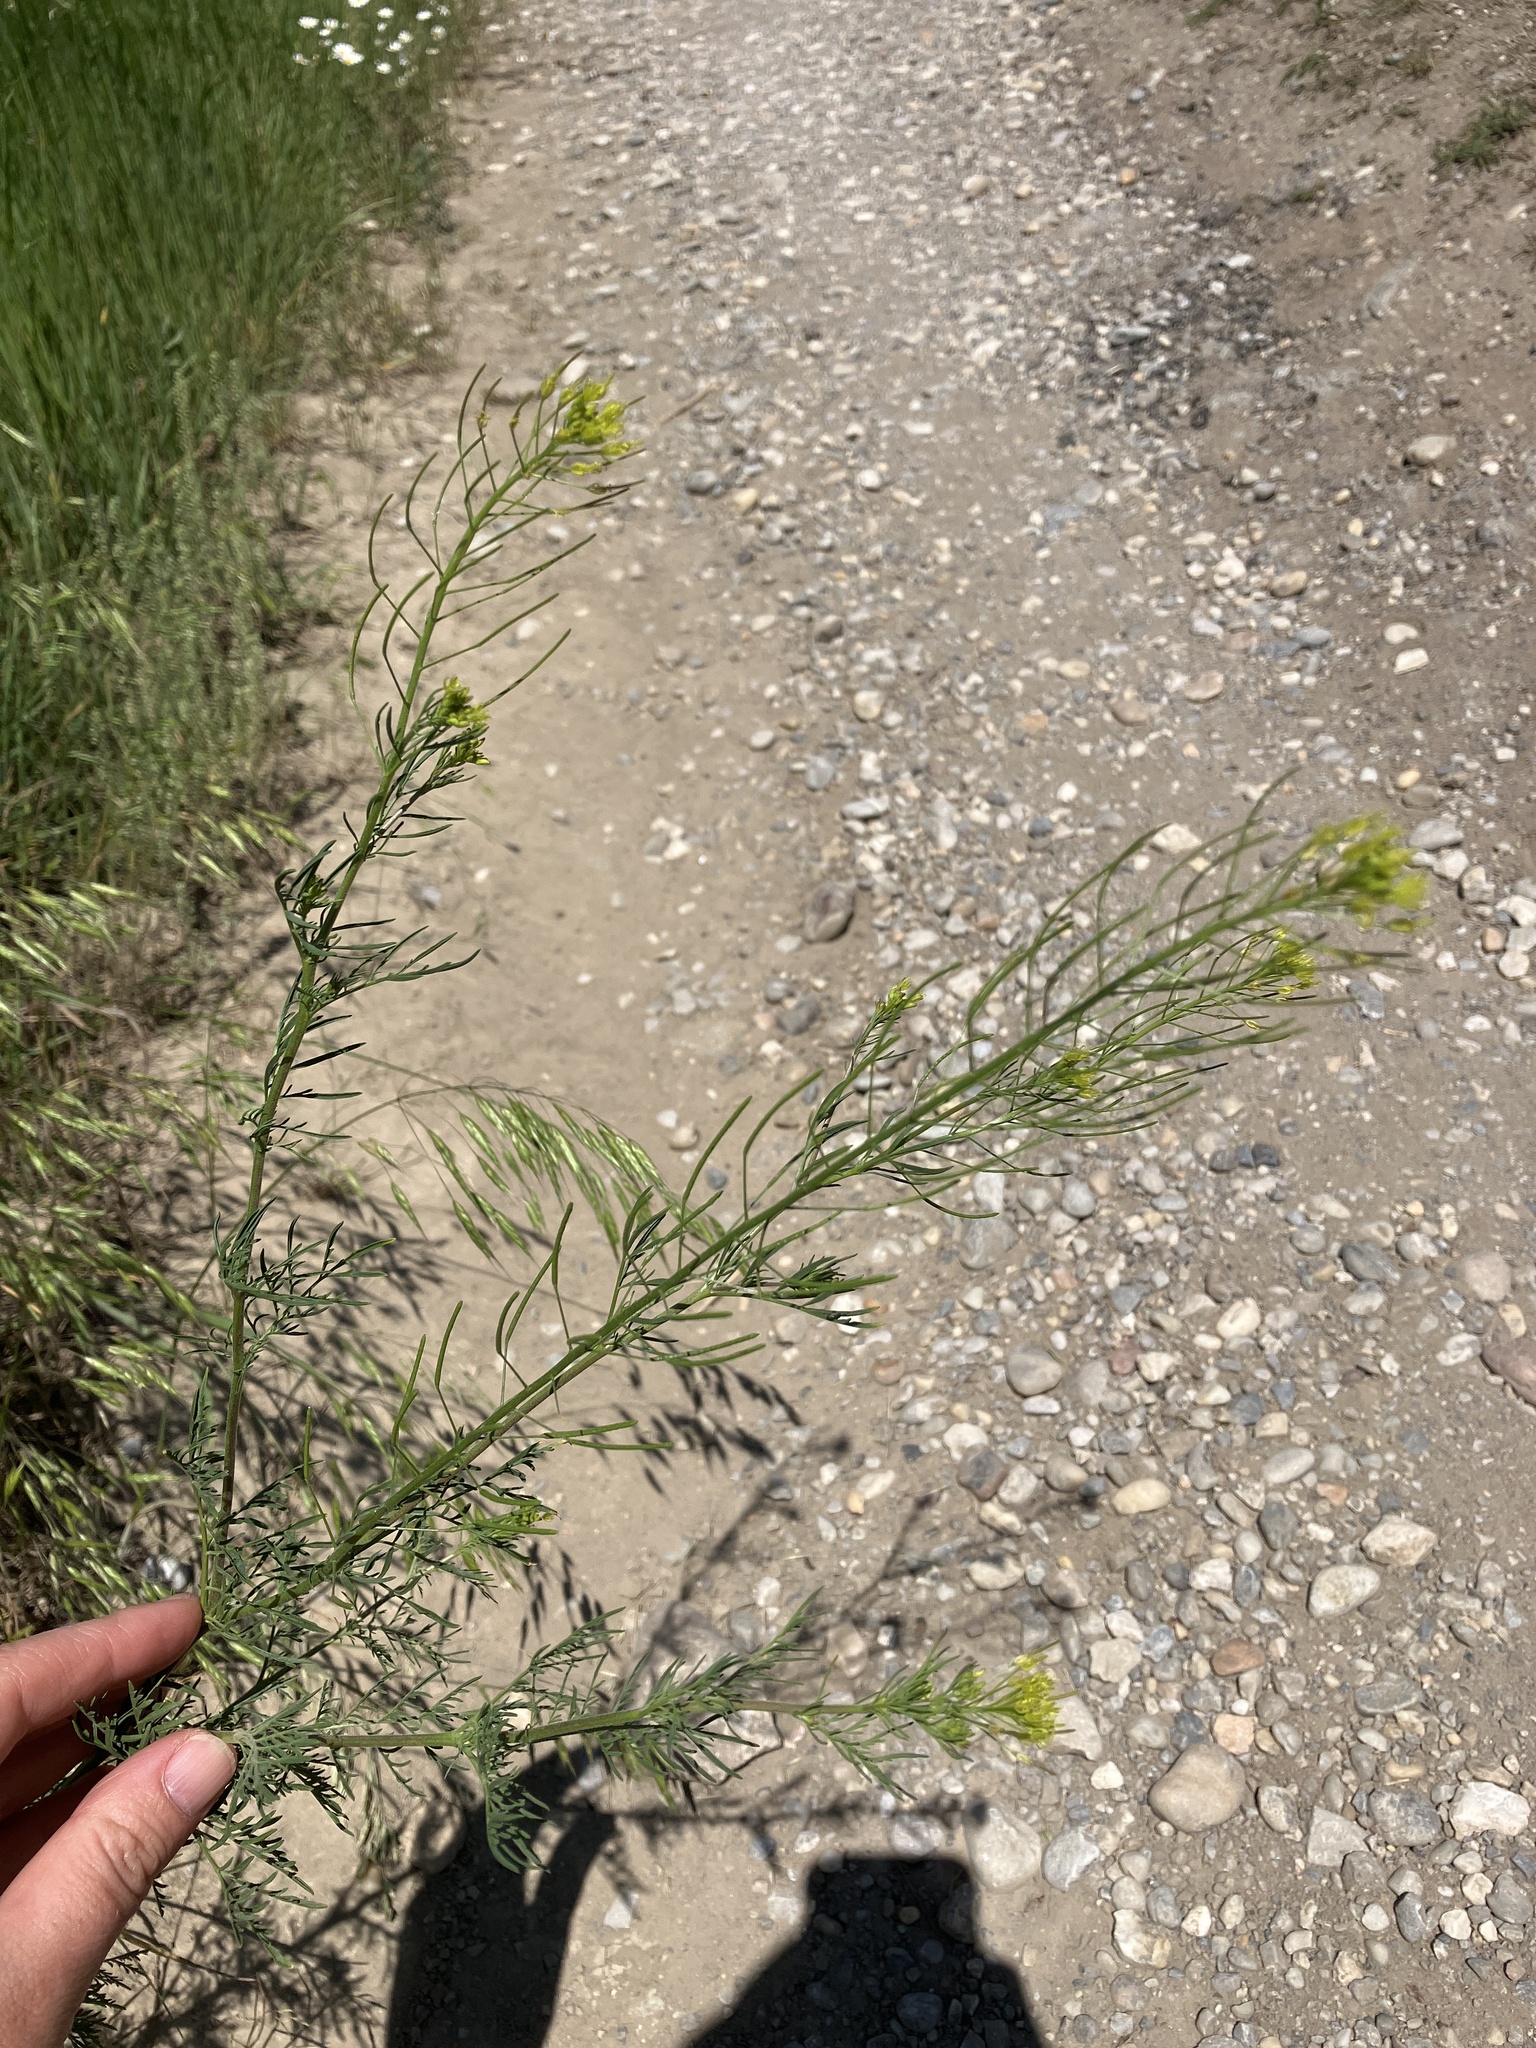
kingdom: Plantae
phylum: Tracheophyta
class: Magnoliopsida
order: Brassicales
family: Brassicaceae
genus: Descurainia
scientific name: Descurainia sophia
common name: Flixweed
